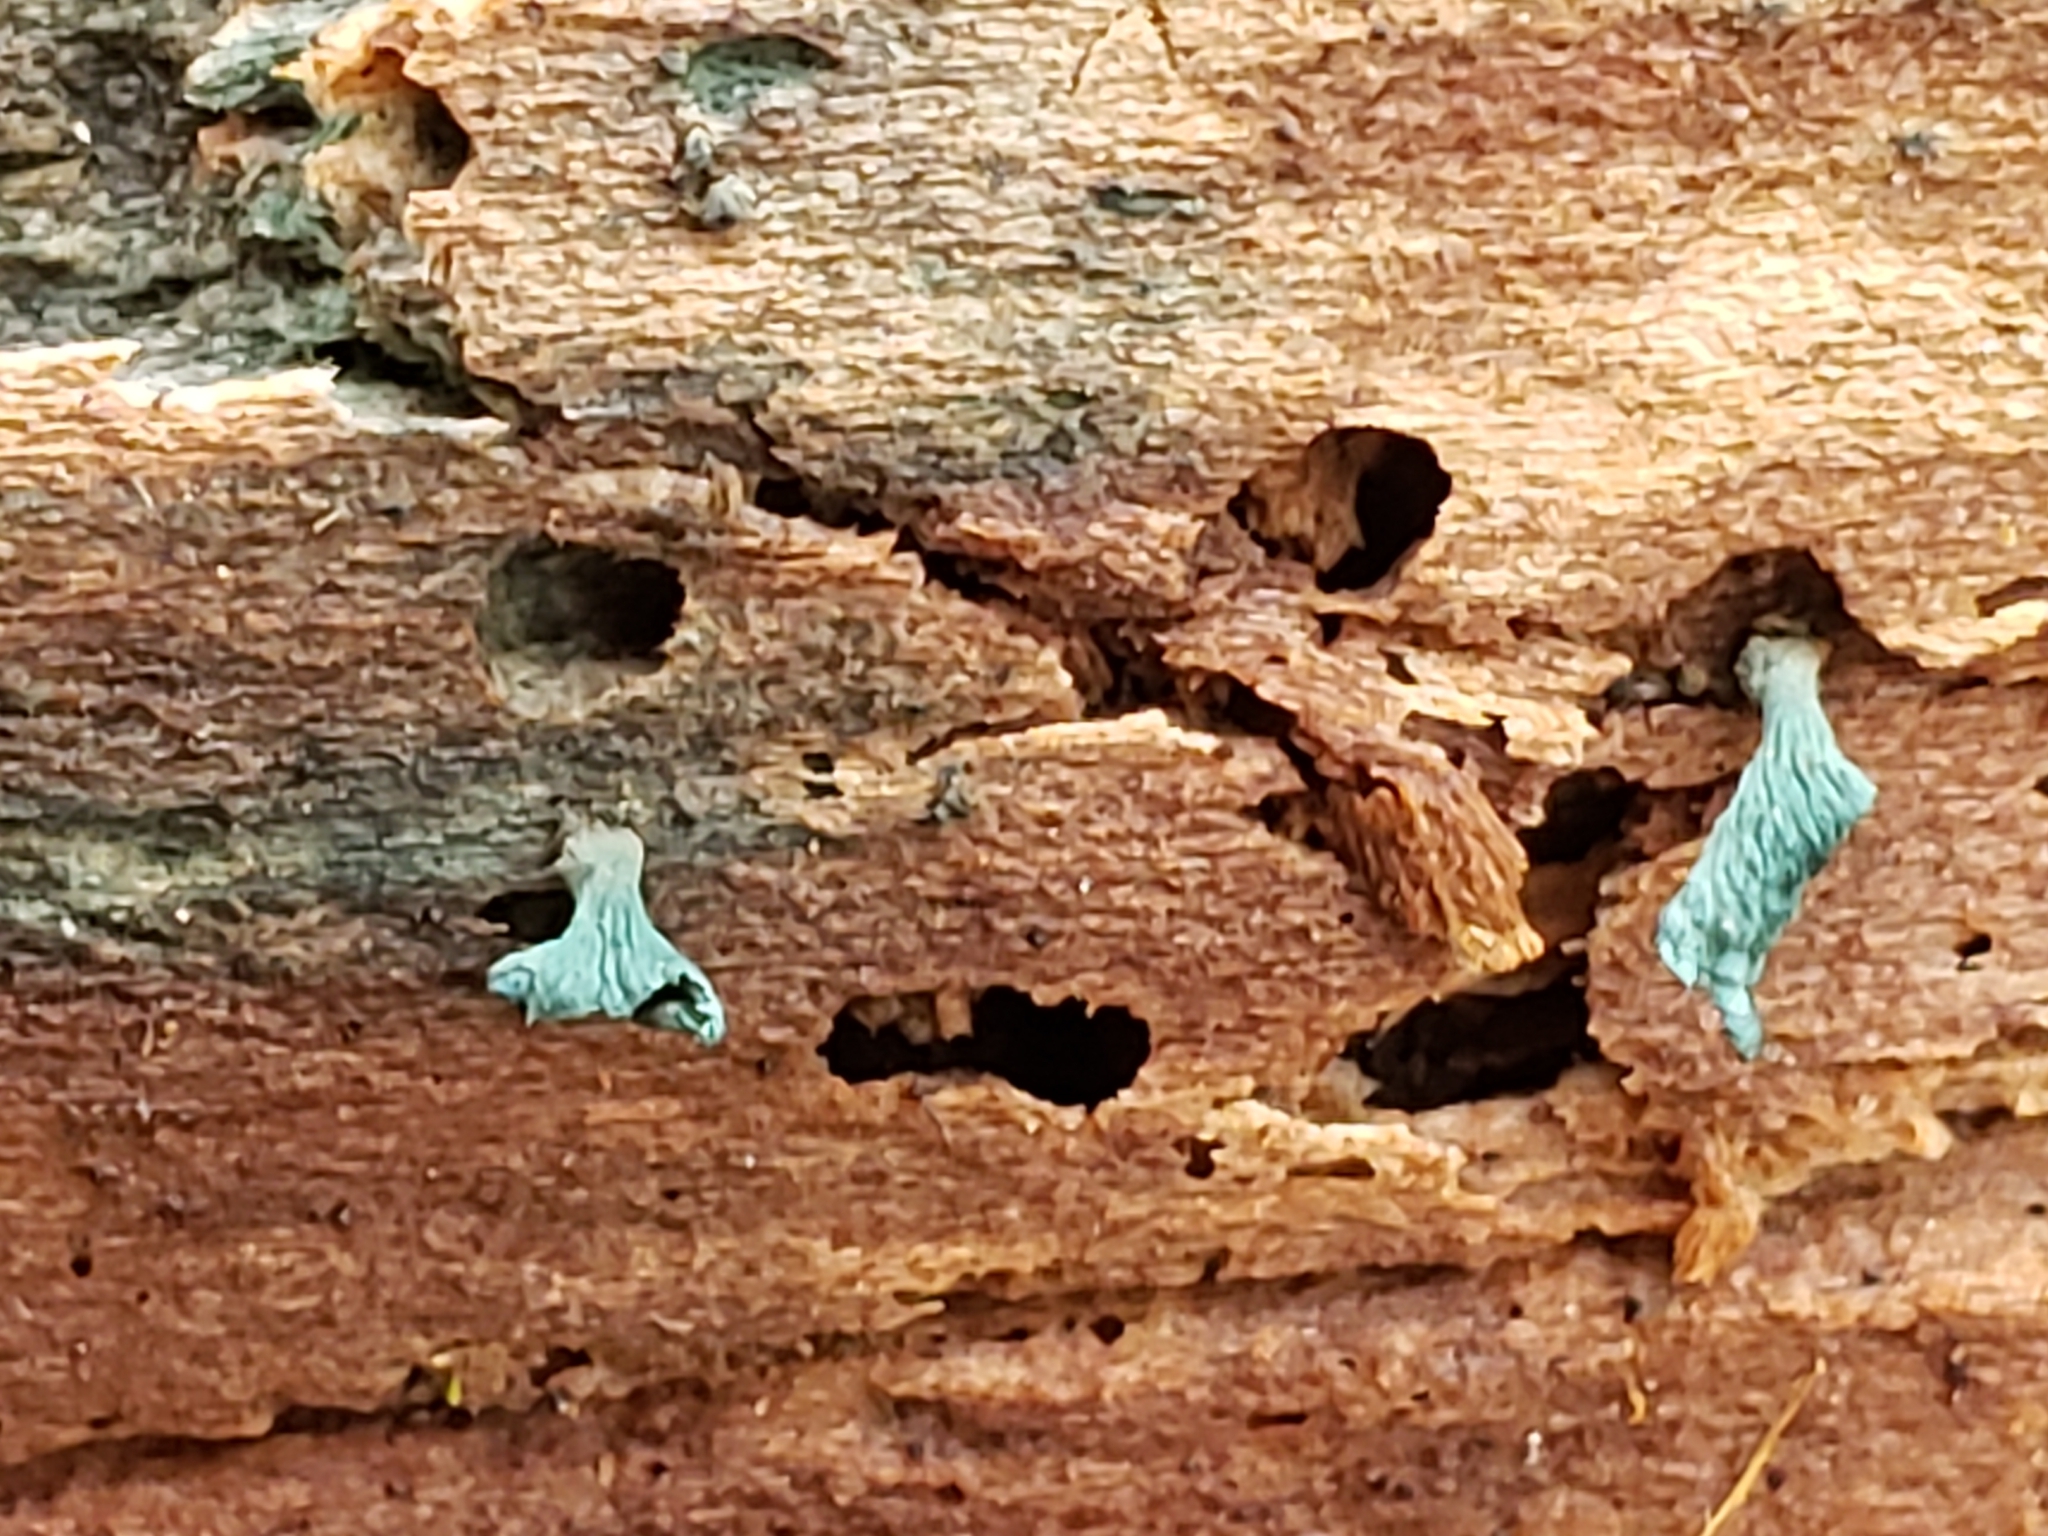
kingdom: Fungi
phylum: Ascomycota
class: Leotiomycetes
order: Helotiales
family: Chlorociboriaceae
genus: Chlorociboria
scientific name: Chlorociboria aeruginascens
